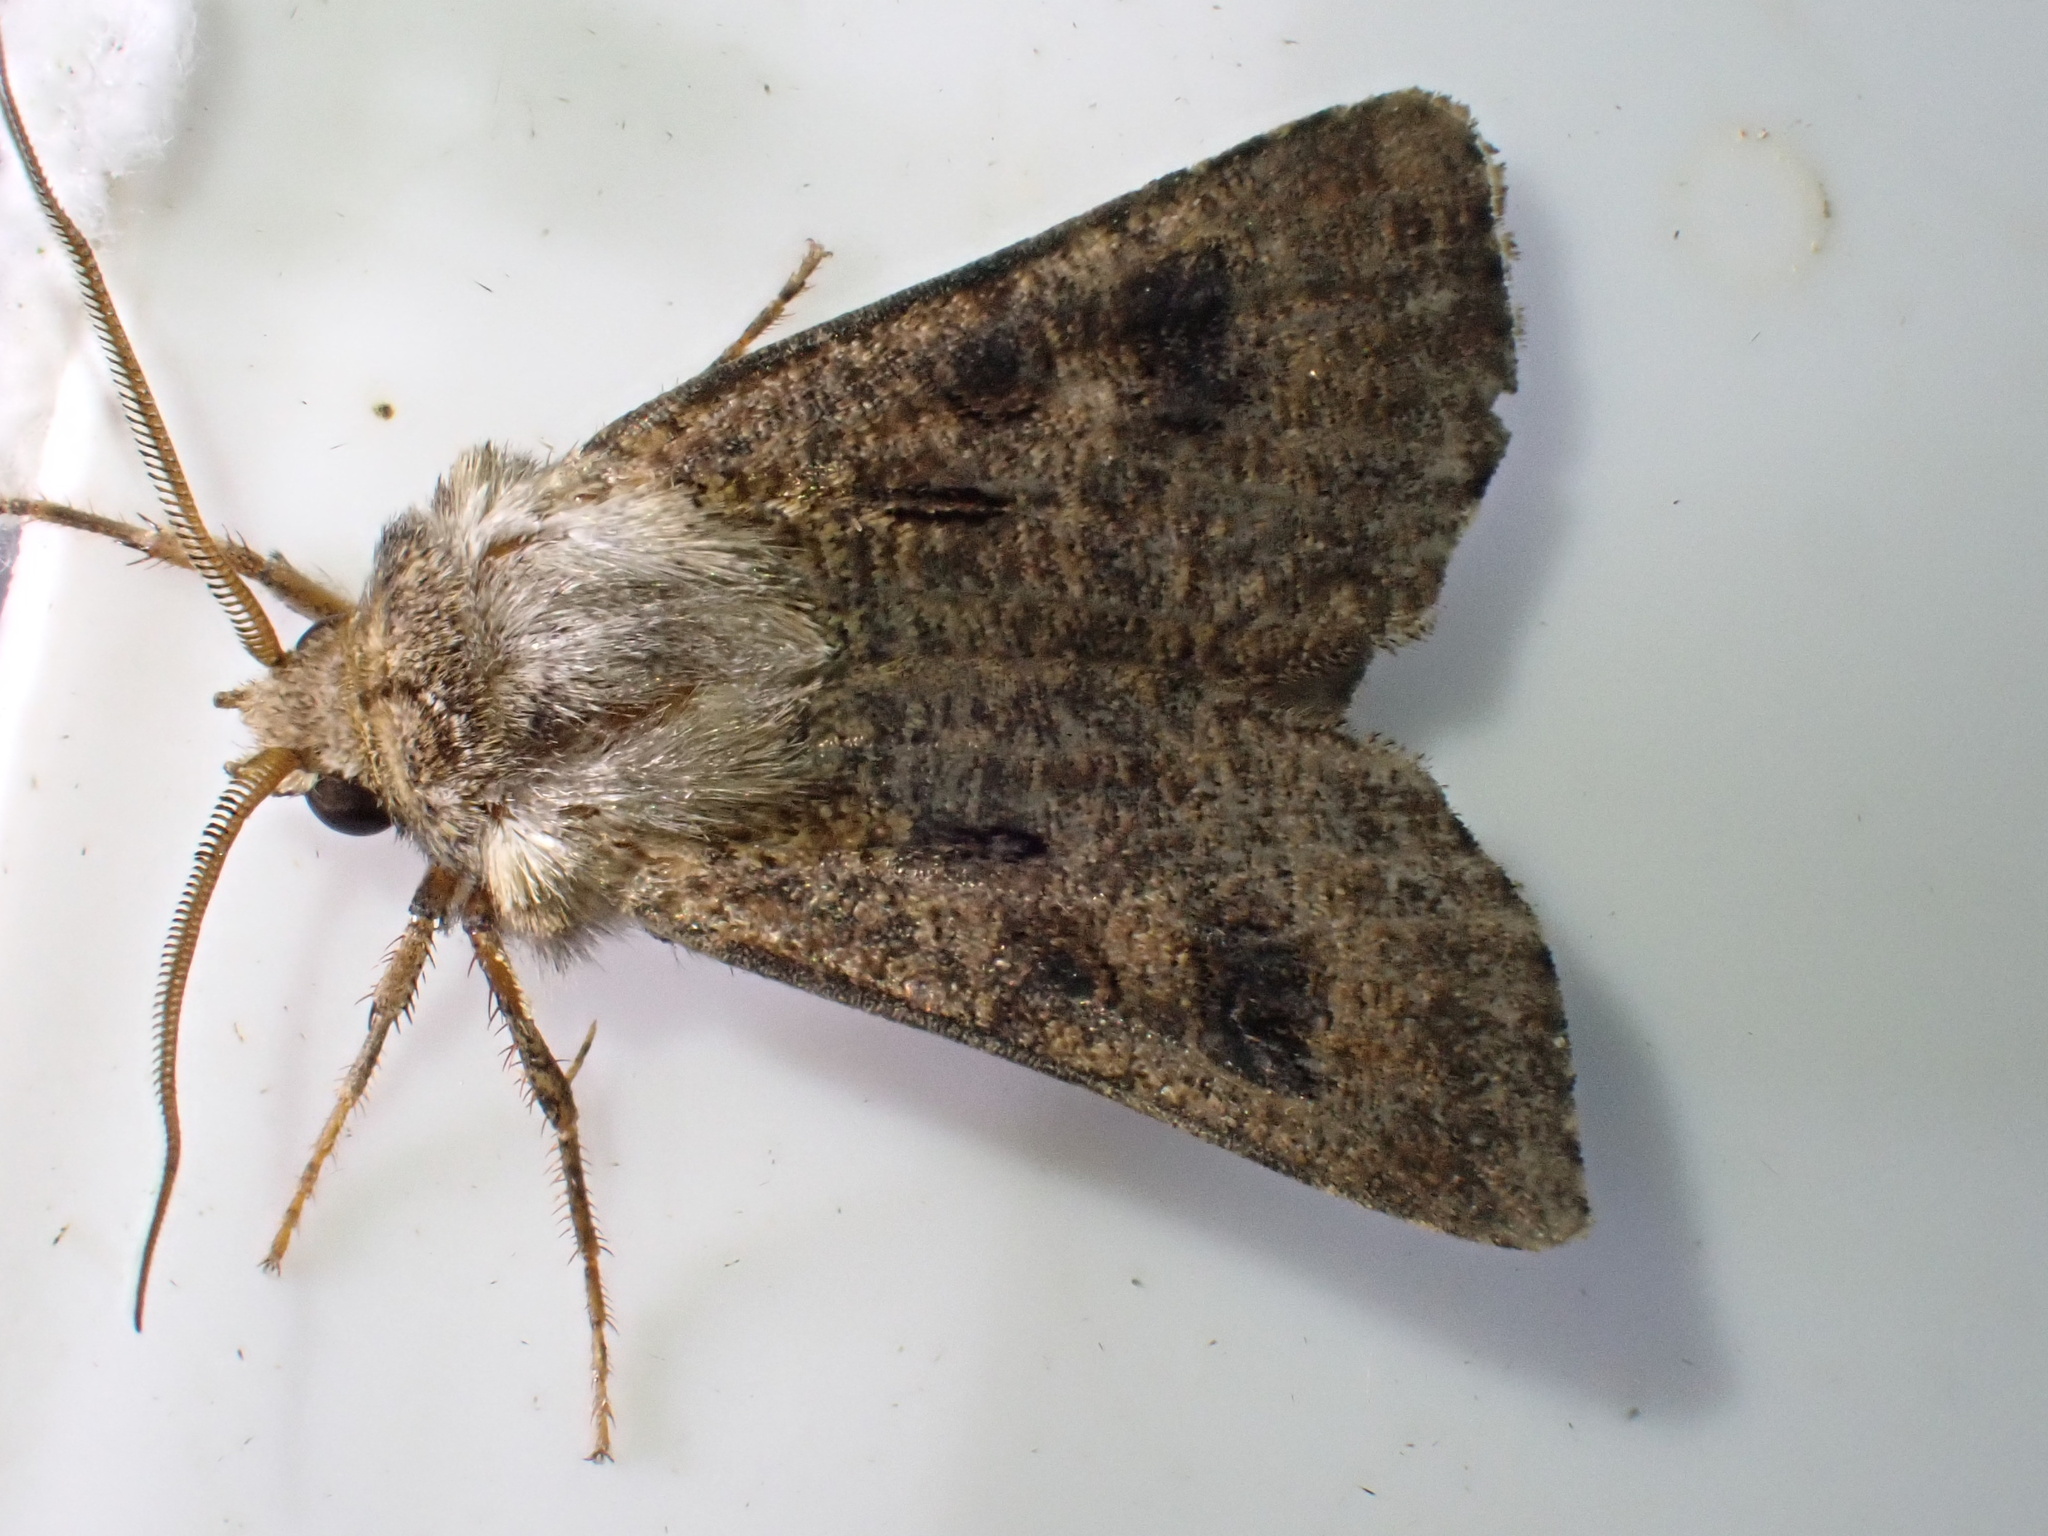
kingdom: Animalia
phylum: Arthropoda
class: Insecta
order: Lepidoptera
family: Noctuidae
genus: Agrotis
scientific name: Agrotis clavis
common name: Heart and club
